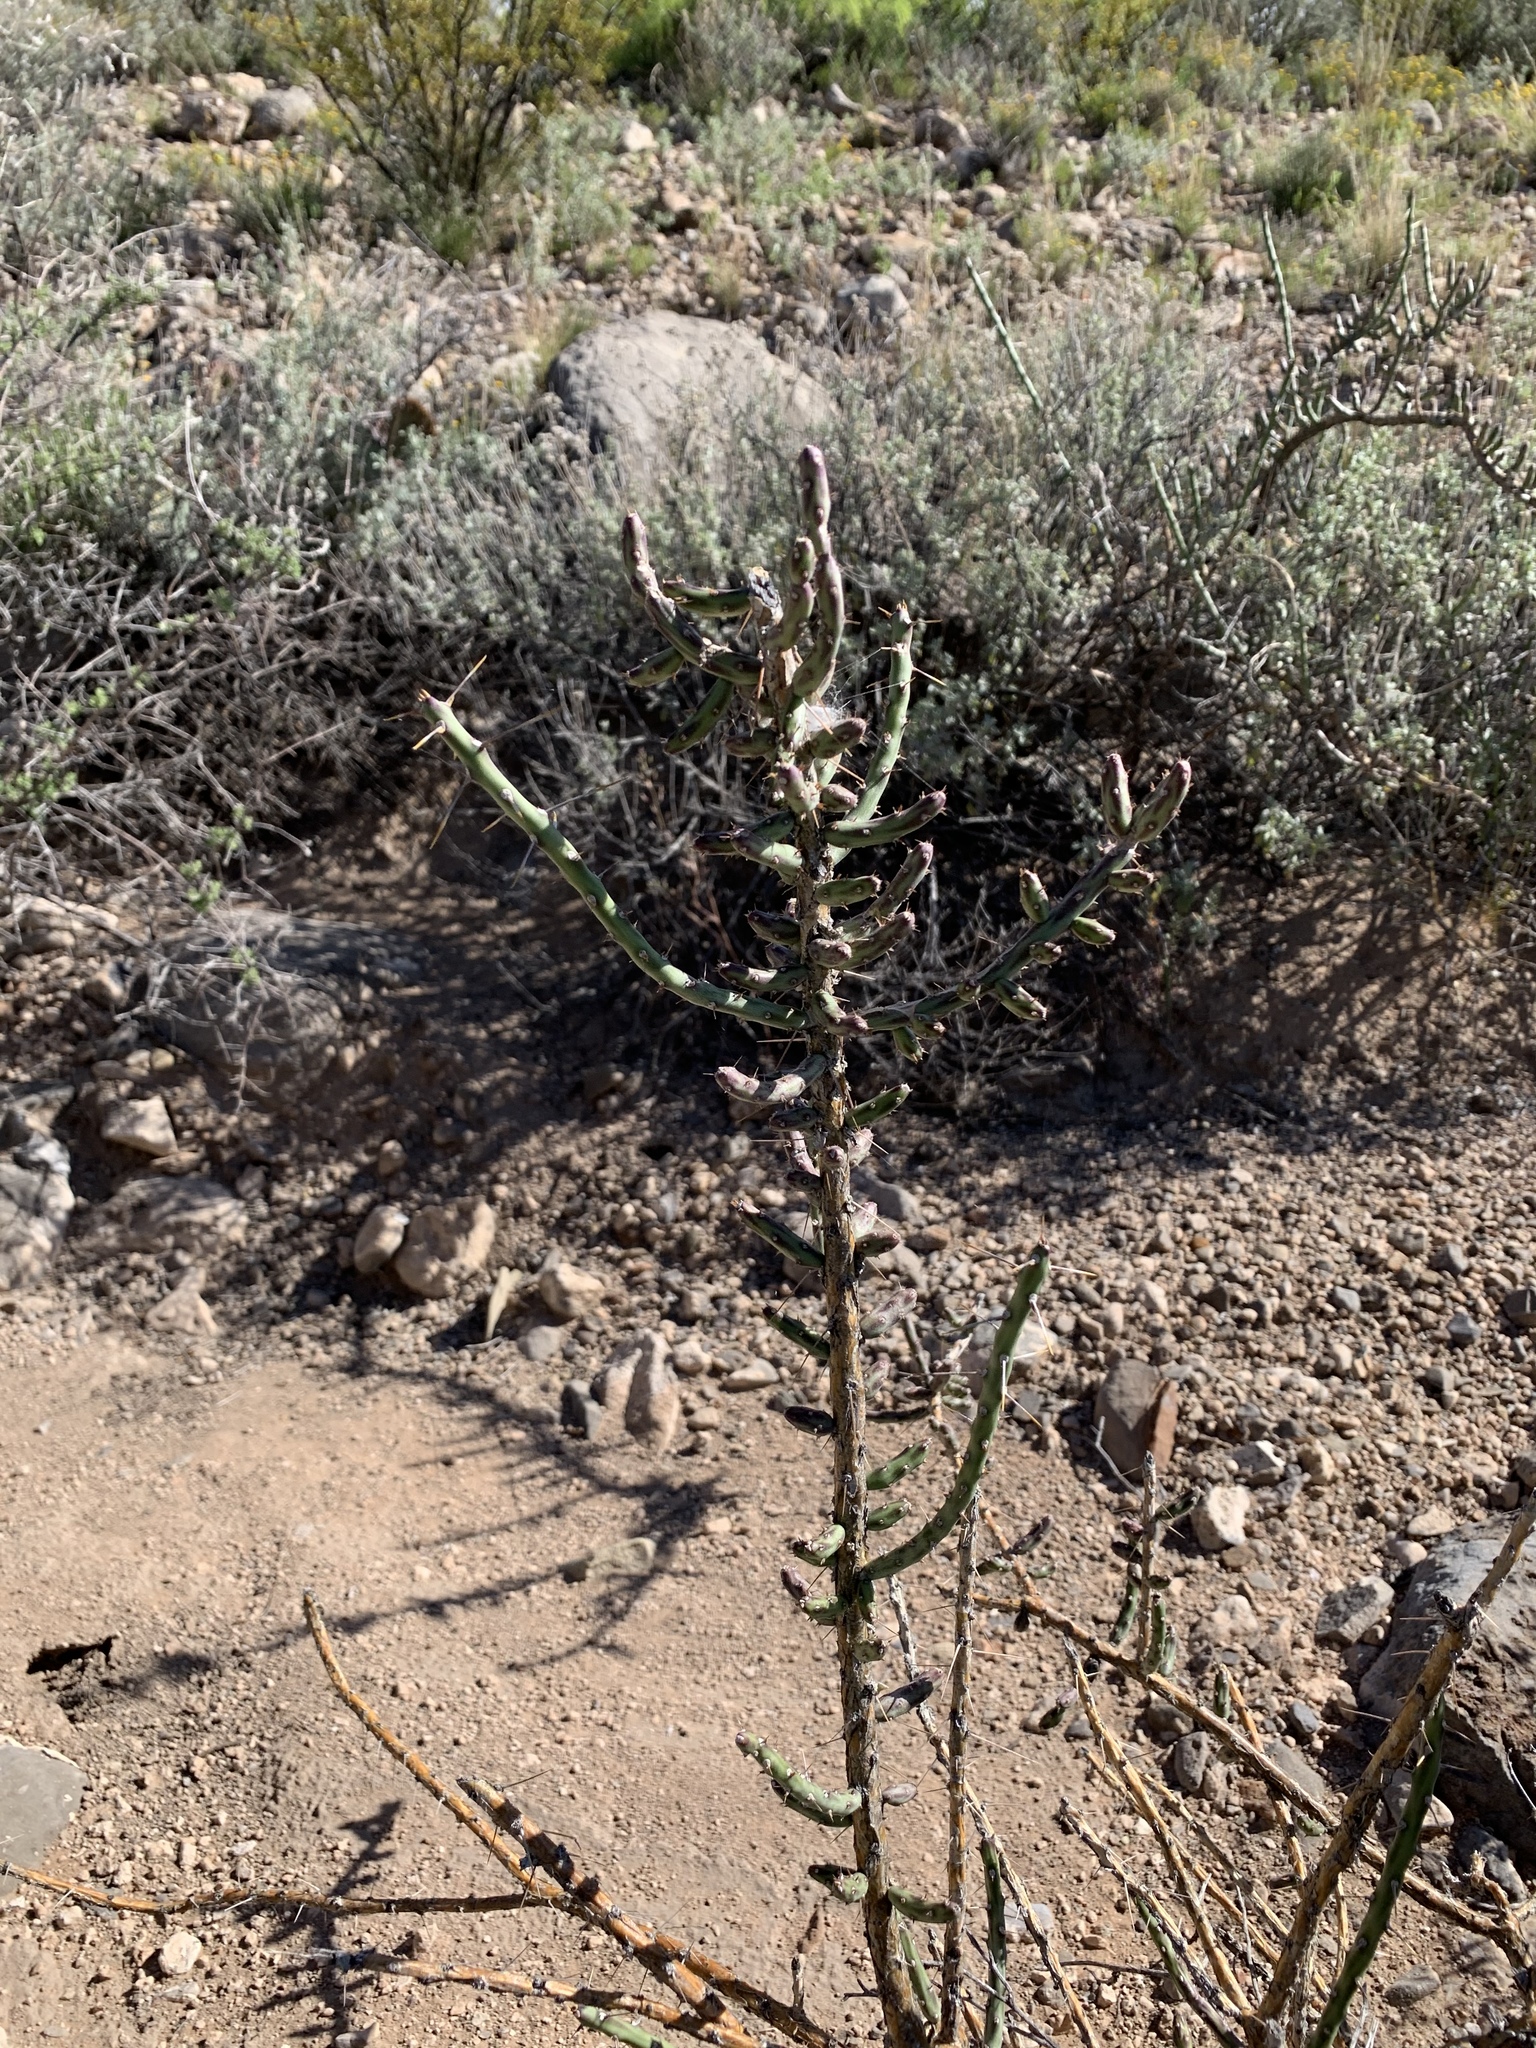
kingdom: Plantae
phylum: Tracheophyta
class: Magnoliopsida
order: Caryophyllales
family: Cactaceae
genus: Cylindropuntia
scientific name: Cylindropuntia leptocaulis
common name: Christmas cactus
